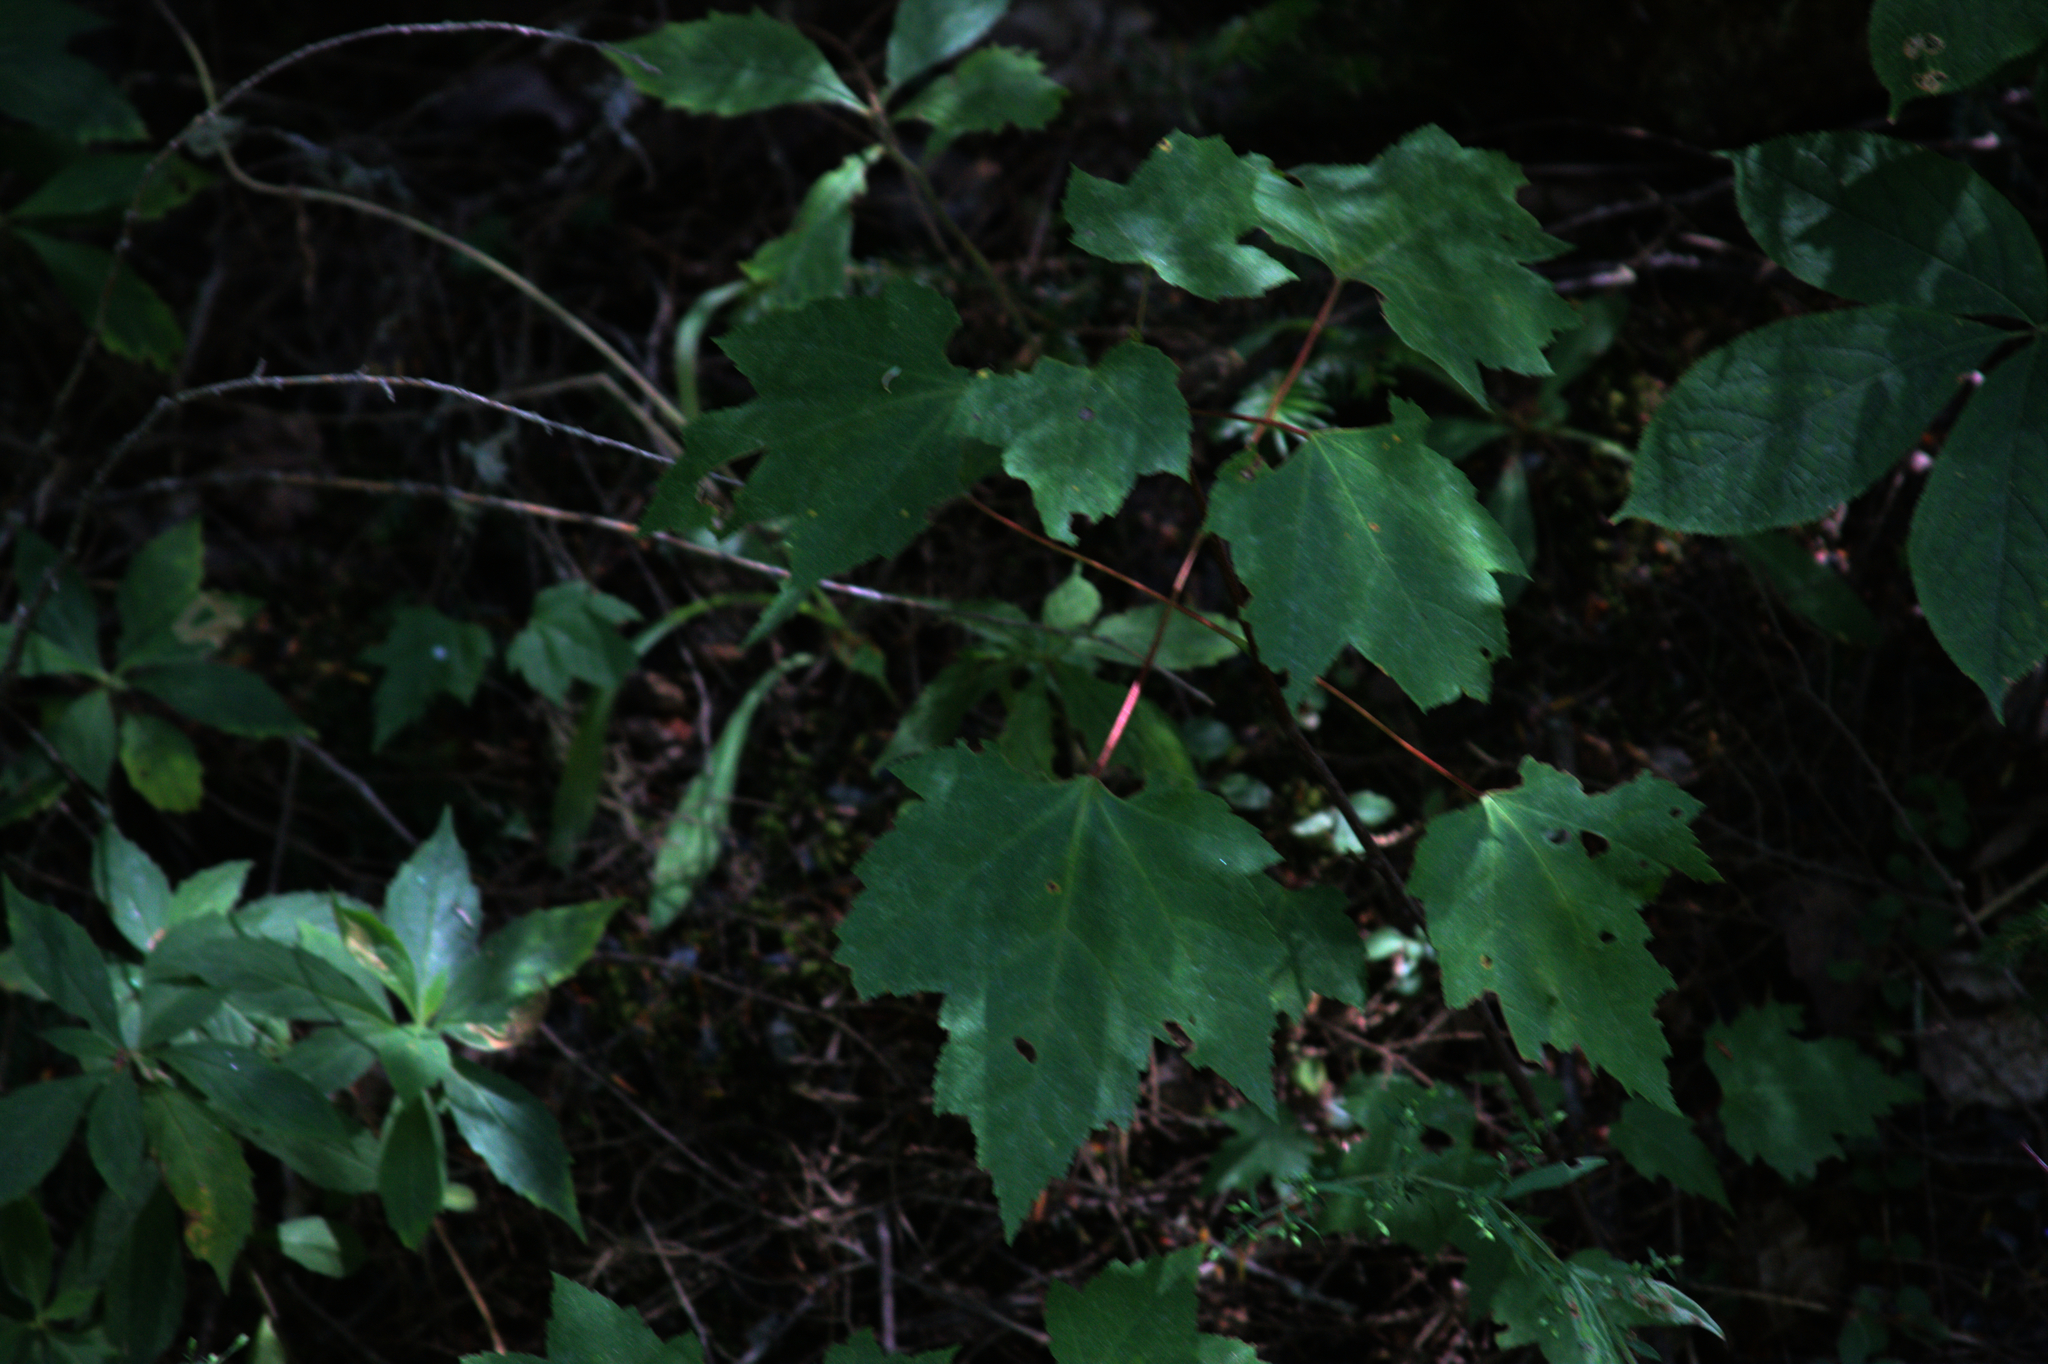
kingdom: Plantae
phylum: Tracheophyta
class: Magnoliopsida
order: Sapindales
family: Sapindaceae
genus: Acer
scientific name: Acer rubrum
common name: Red maple
